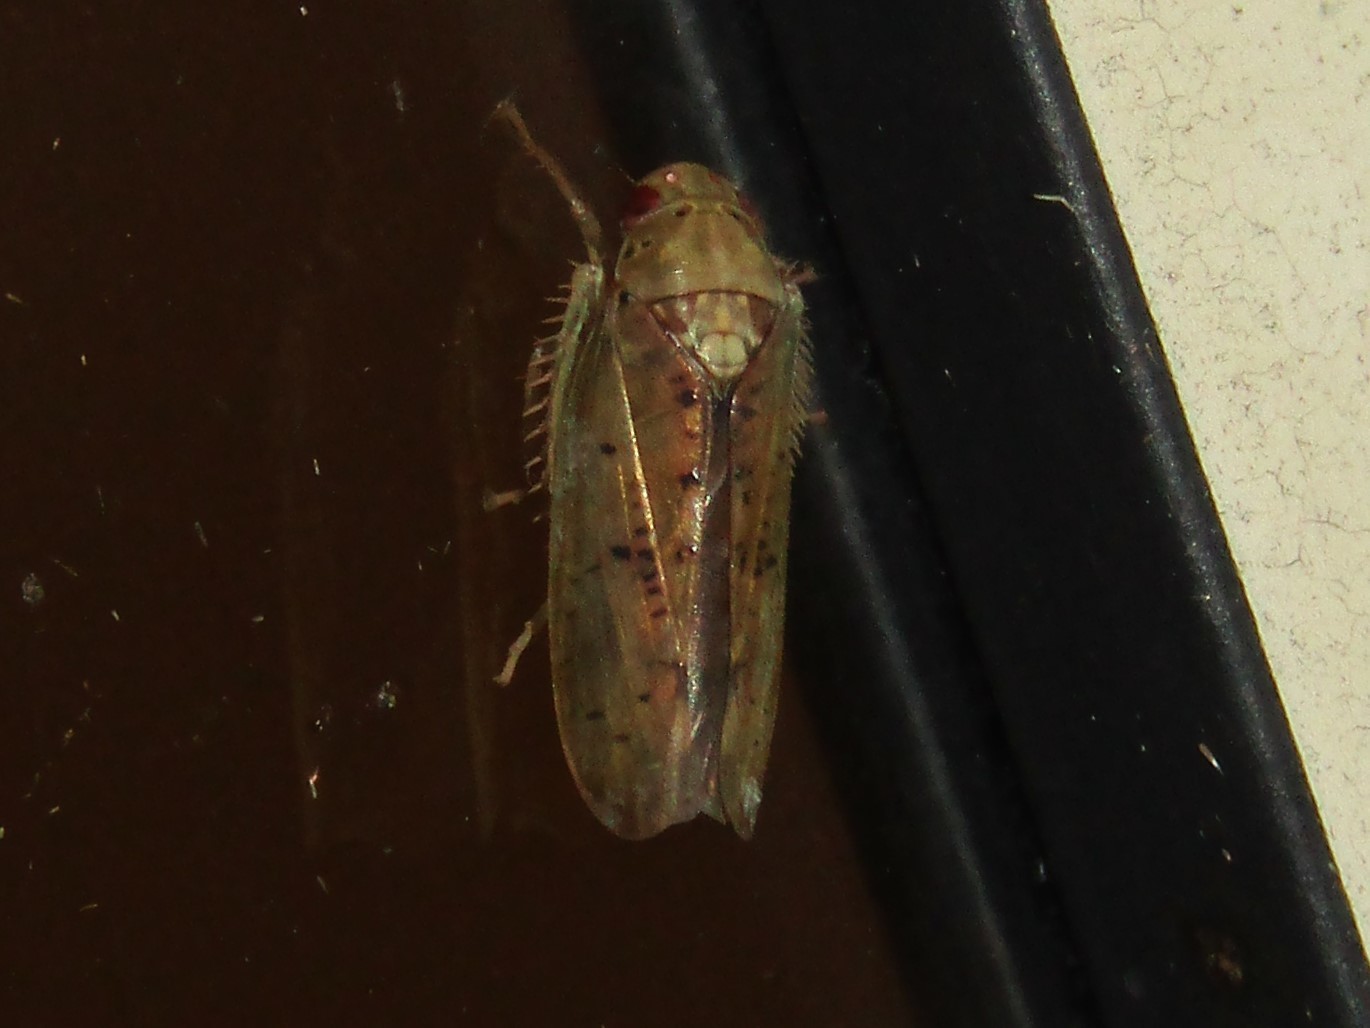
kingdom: Animalia
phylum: Arthropoda
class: Insecta
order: Hemiptera
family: Cicadellidae
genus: Ponana
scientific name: Ponana quadralaba
